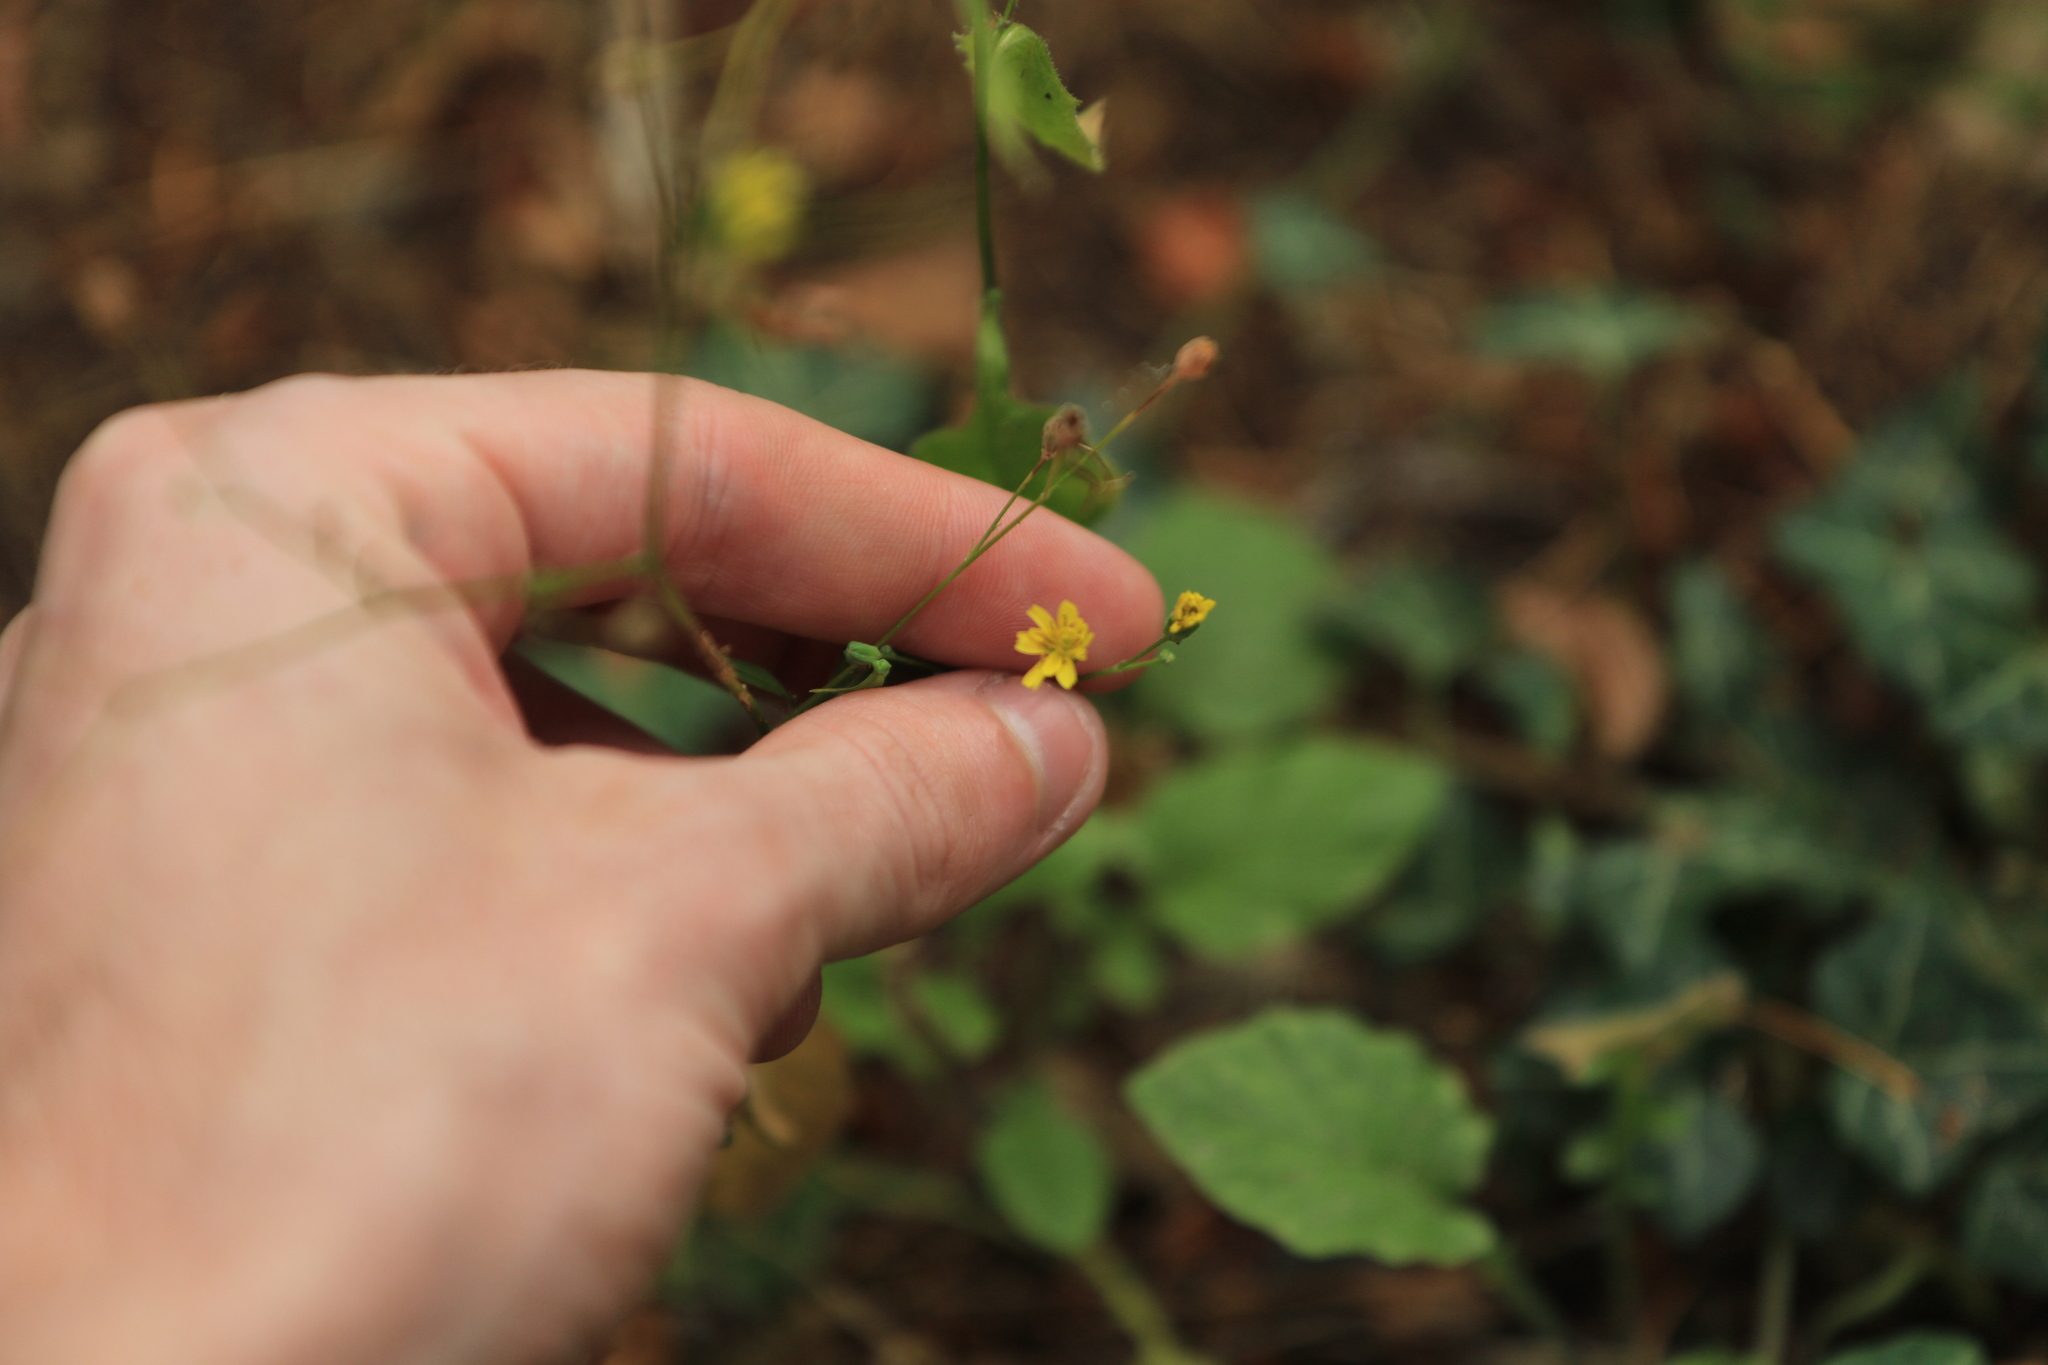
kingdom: Plantae
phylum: Tracheophyta
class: Magnoliopsida
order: Asterales
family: Asteraceae
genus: Lapsana
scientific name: Lapsana communis
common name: Nipplewort
